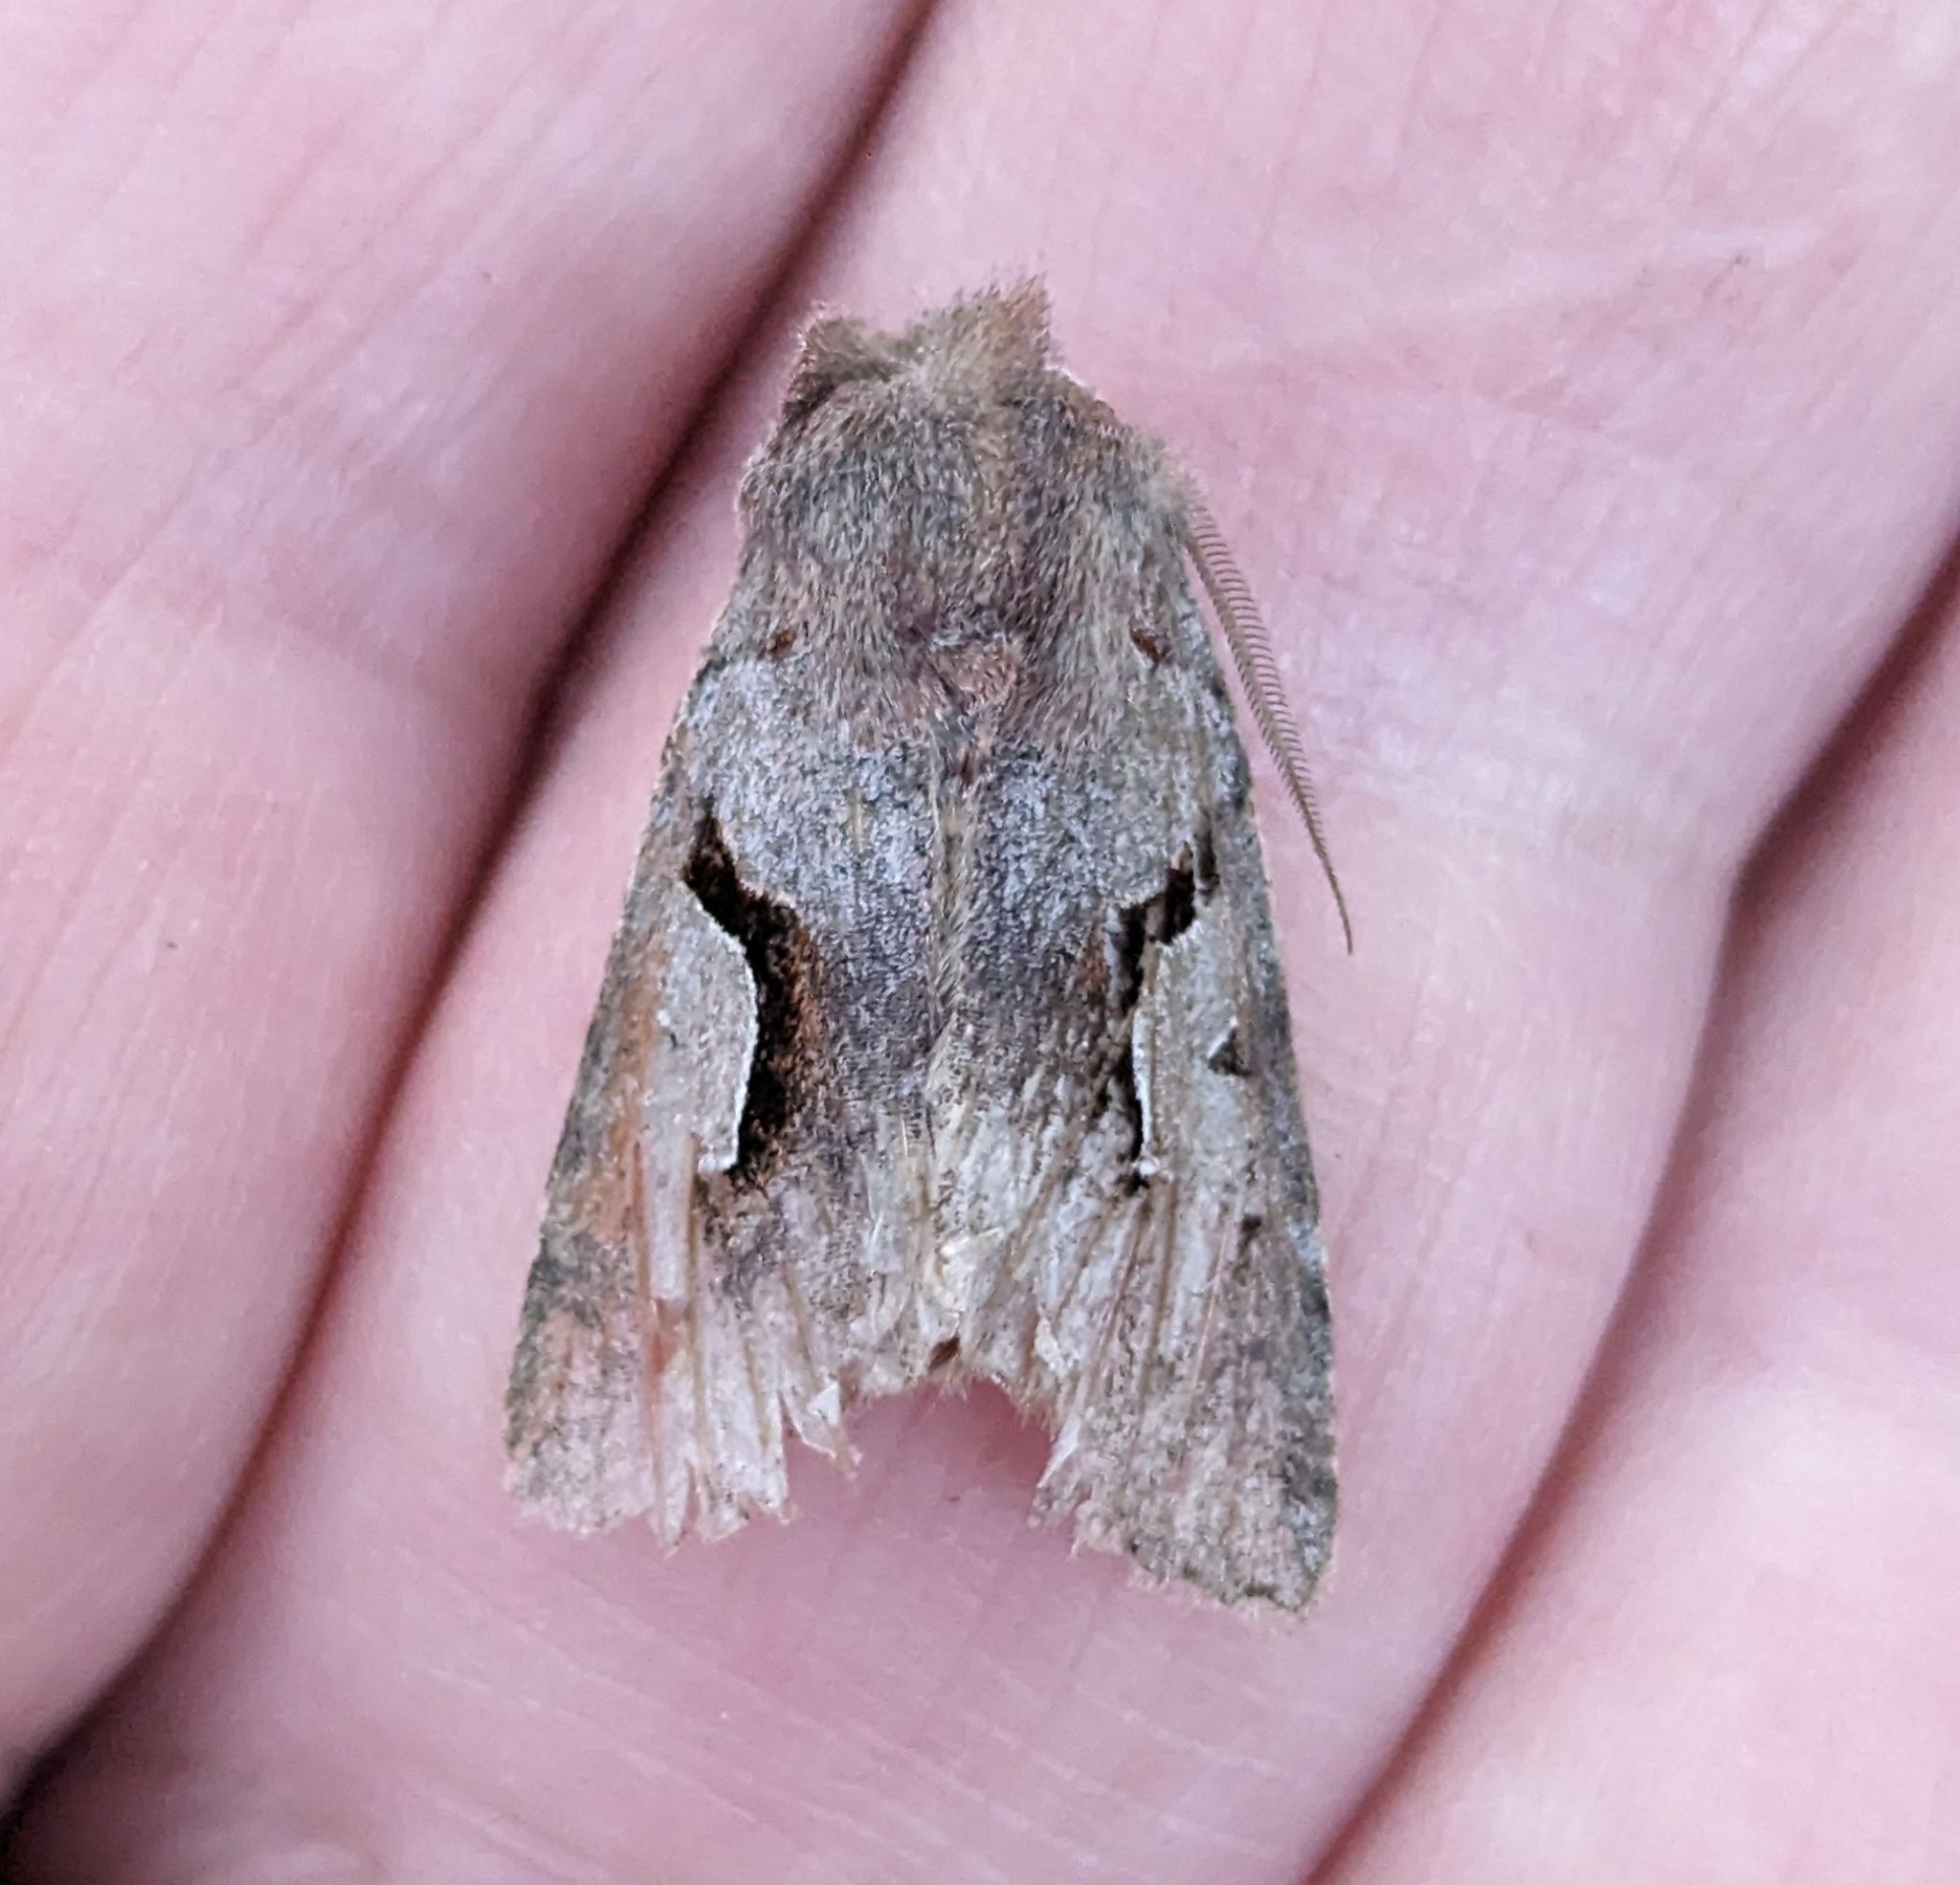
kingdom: Animalia
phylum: Arthropoda
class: Insecta
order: Lepidoptera
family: Noctuidae
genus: Acerra
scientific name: Acerra normalis
